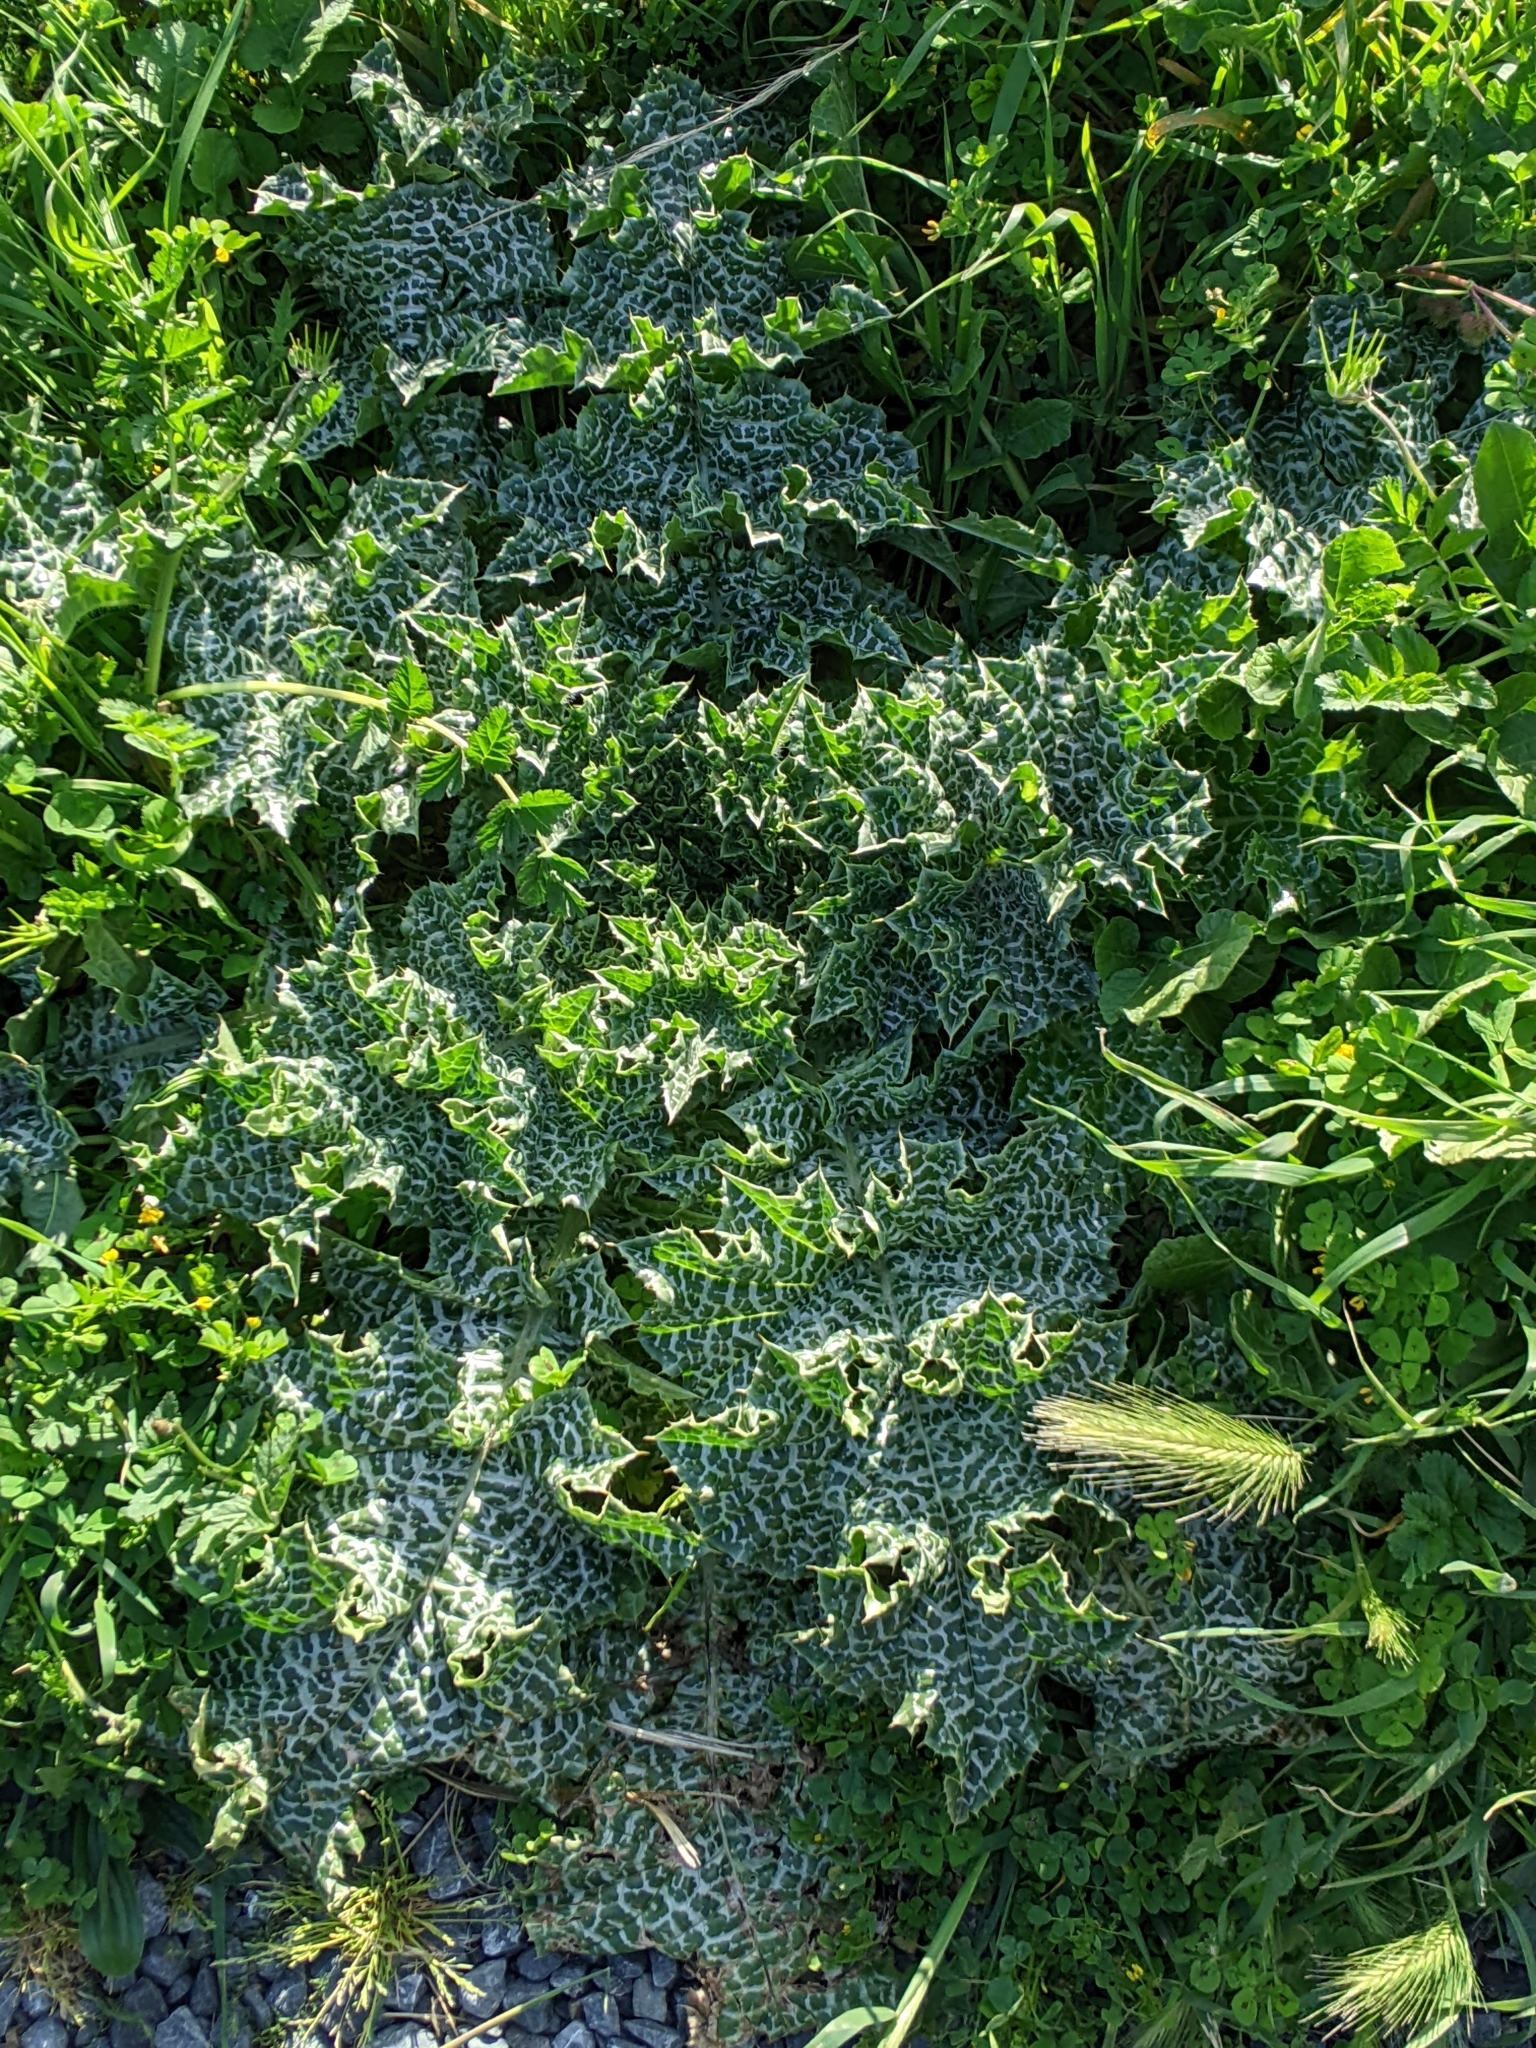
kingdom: Plantae
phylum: Tracheophyta
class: Magnoliopsida
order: Asterales
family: Asteraceae
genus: Silybum
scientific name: Silybum marianum
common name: Milk thistle
